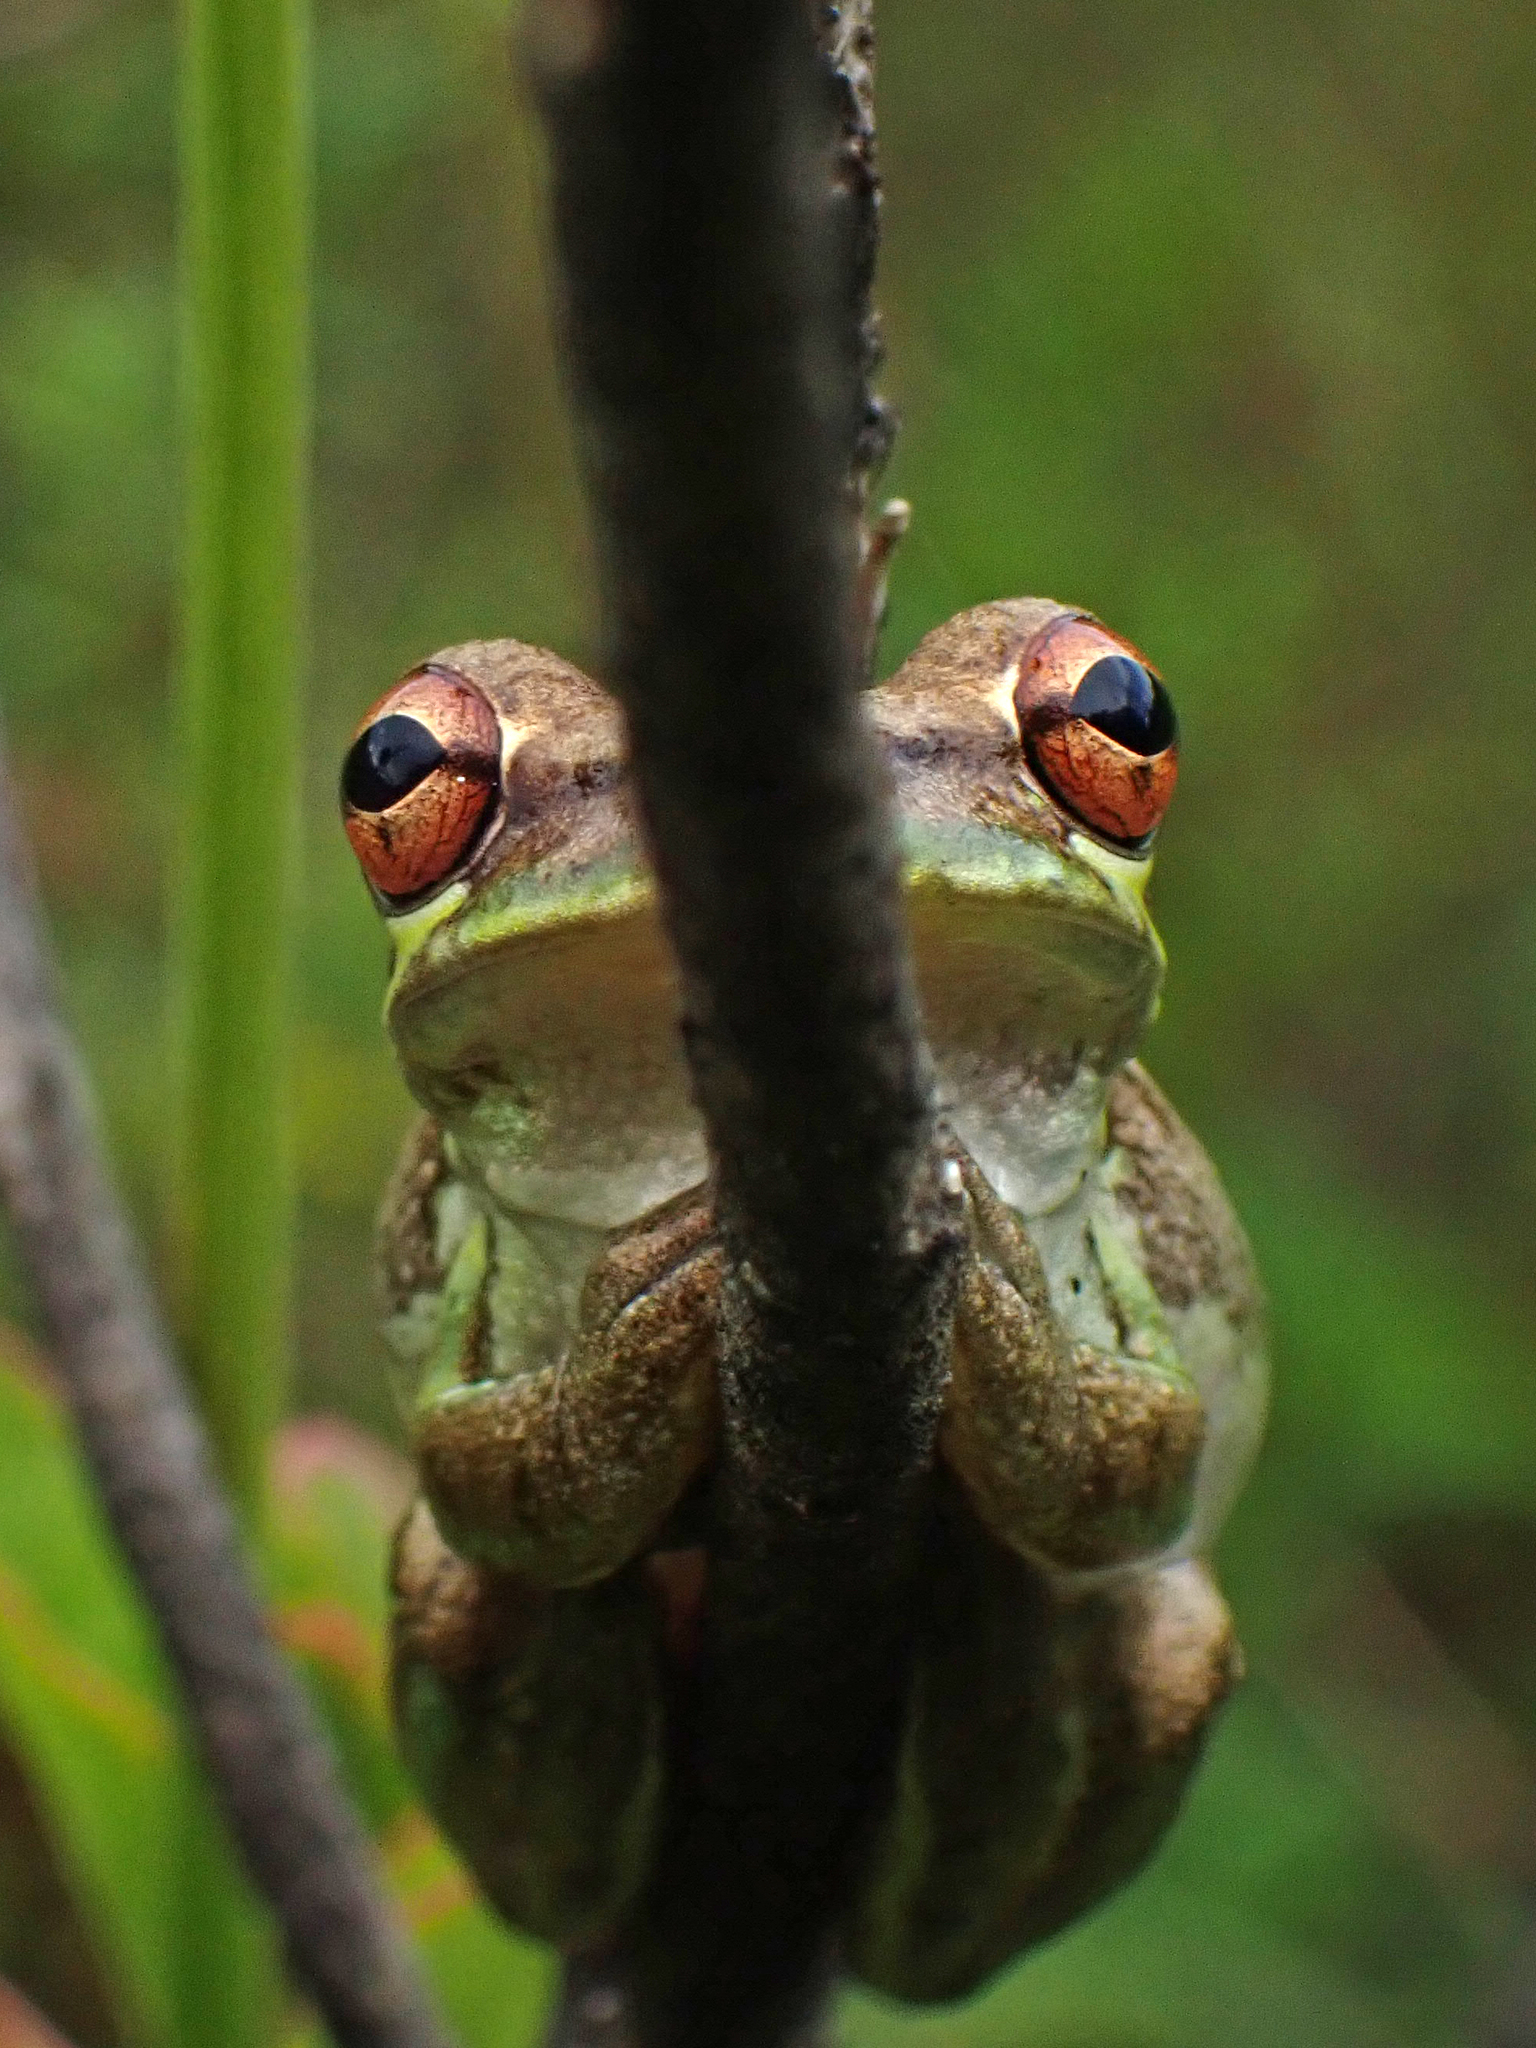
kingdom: Animalia
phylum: Chordata
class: Amphibia
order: Anura
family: Hylidae
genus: Osteopilus
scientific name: Osteopilus septentrionalis
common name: Cuban treefrog
